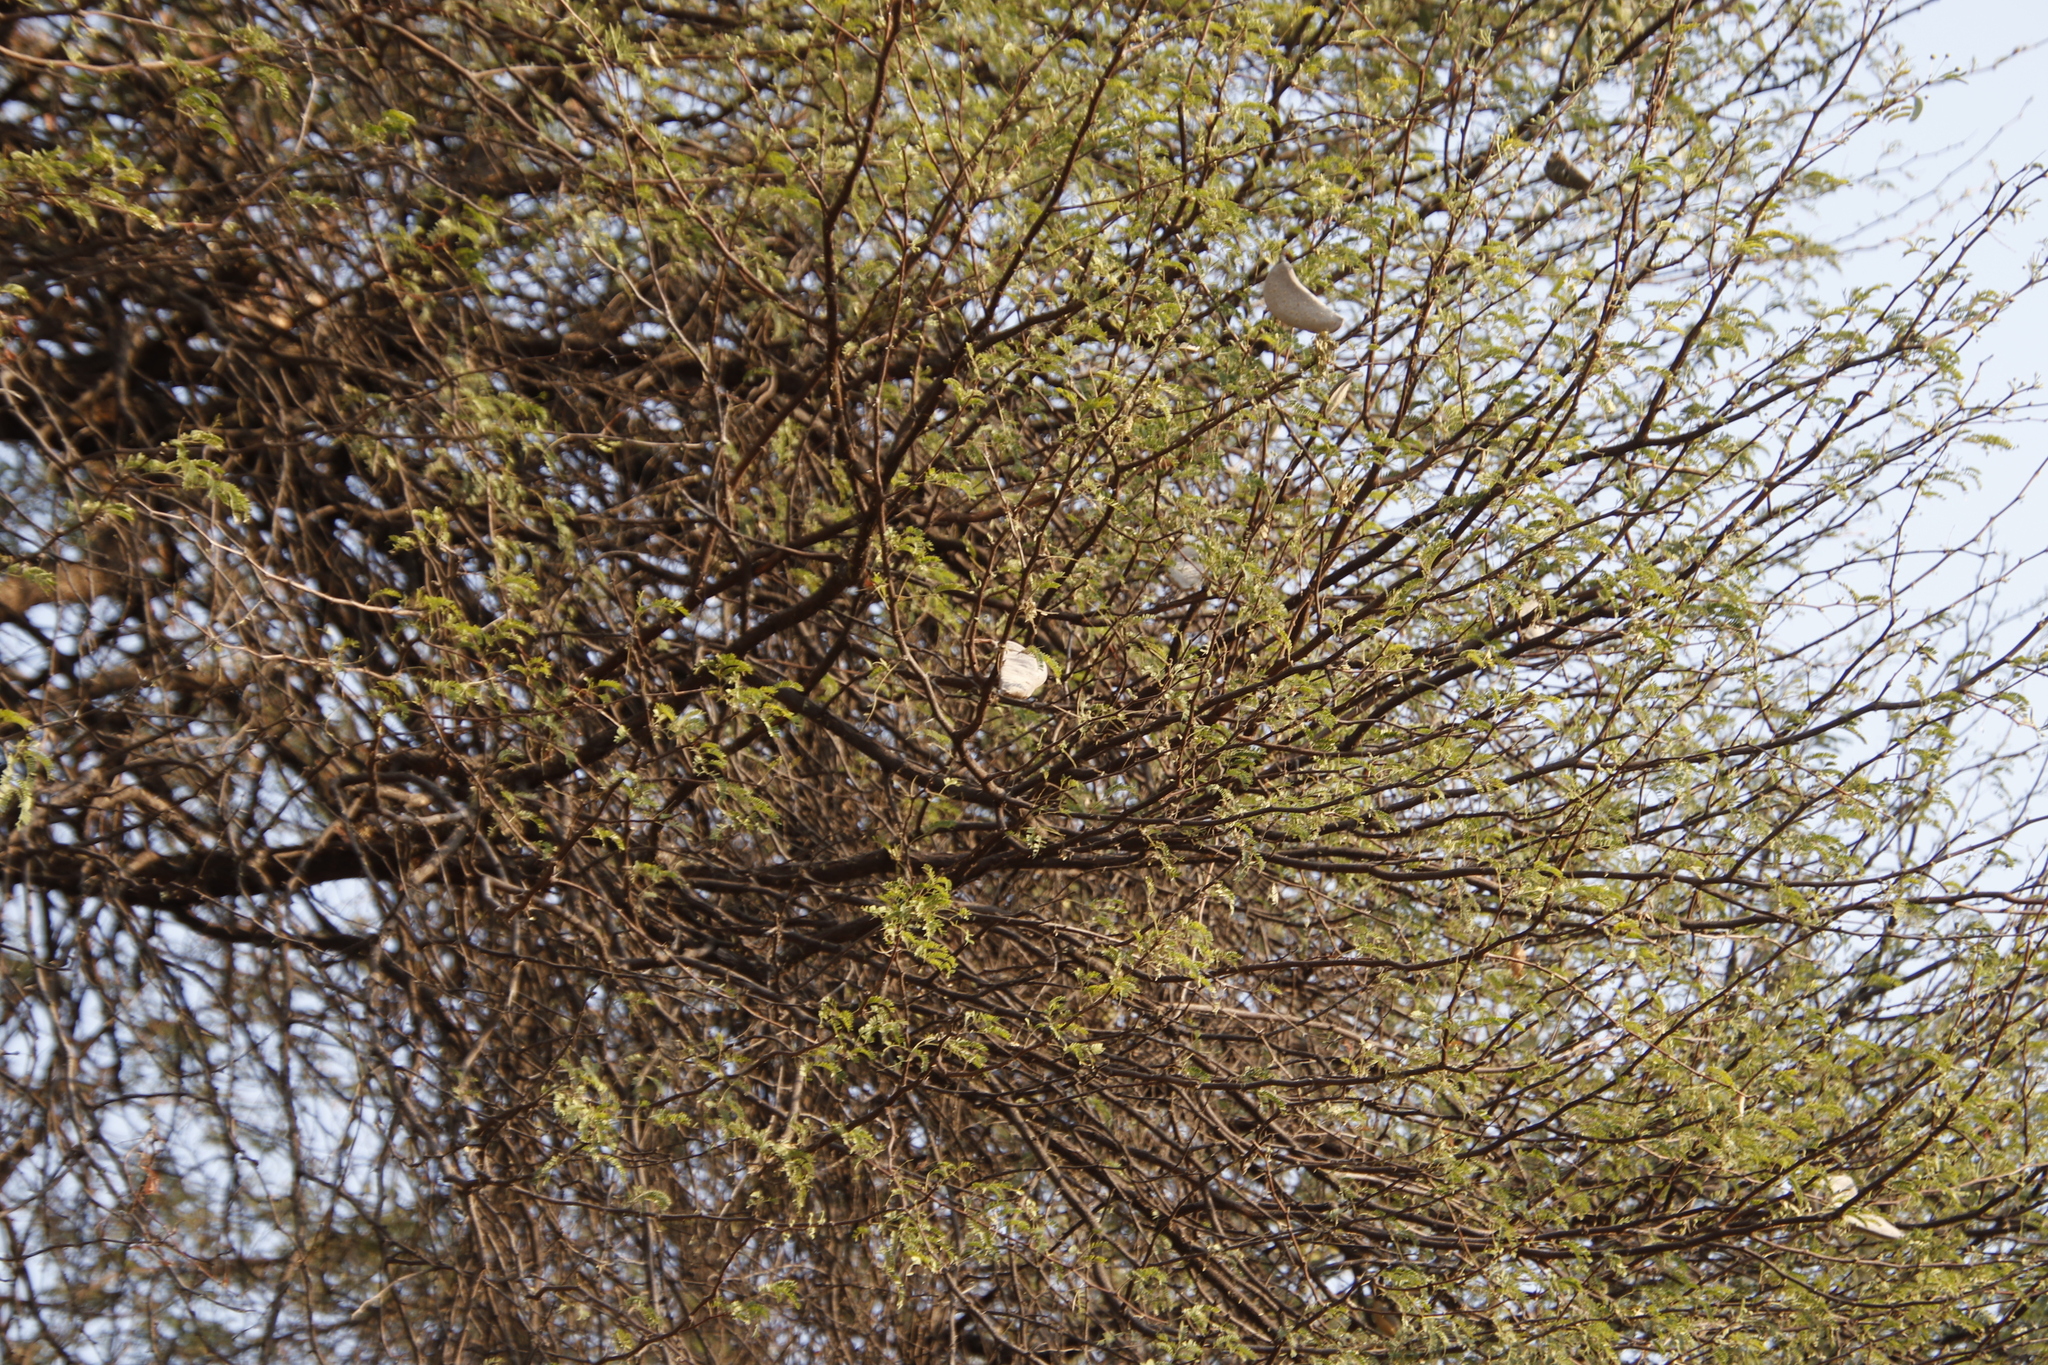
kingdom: Plantae
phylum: Tracheophyta
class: Magnoliopsida
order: Fabales
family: Fabaceae
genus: Vachellia
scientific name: Vachellia erioloba
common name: Camel thorn
